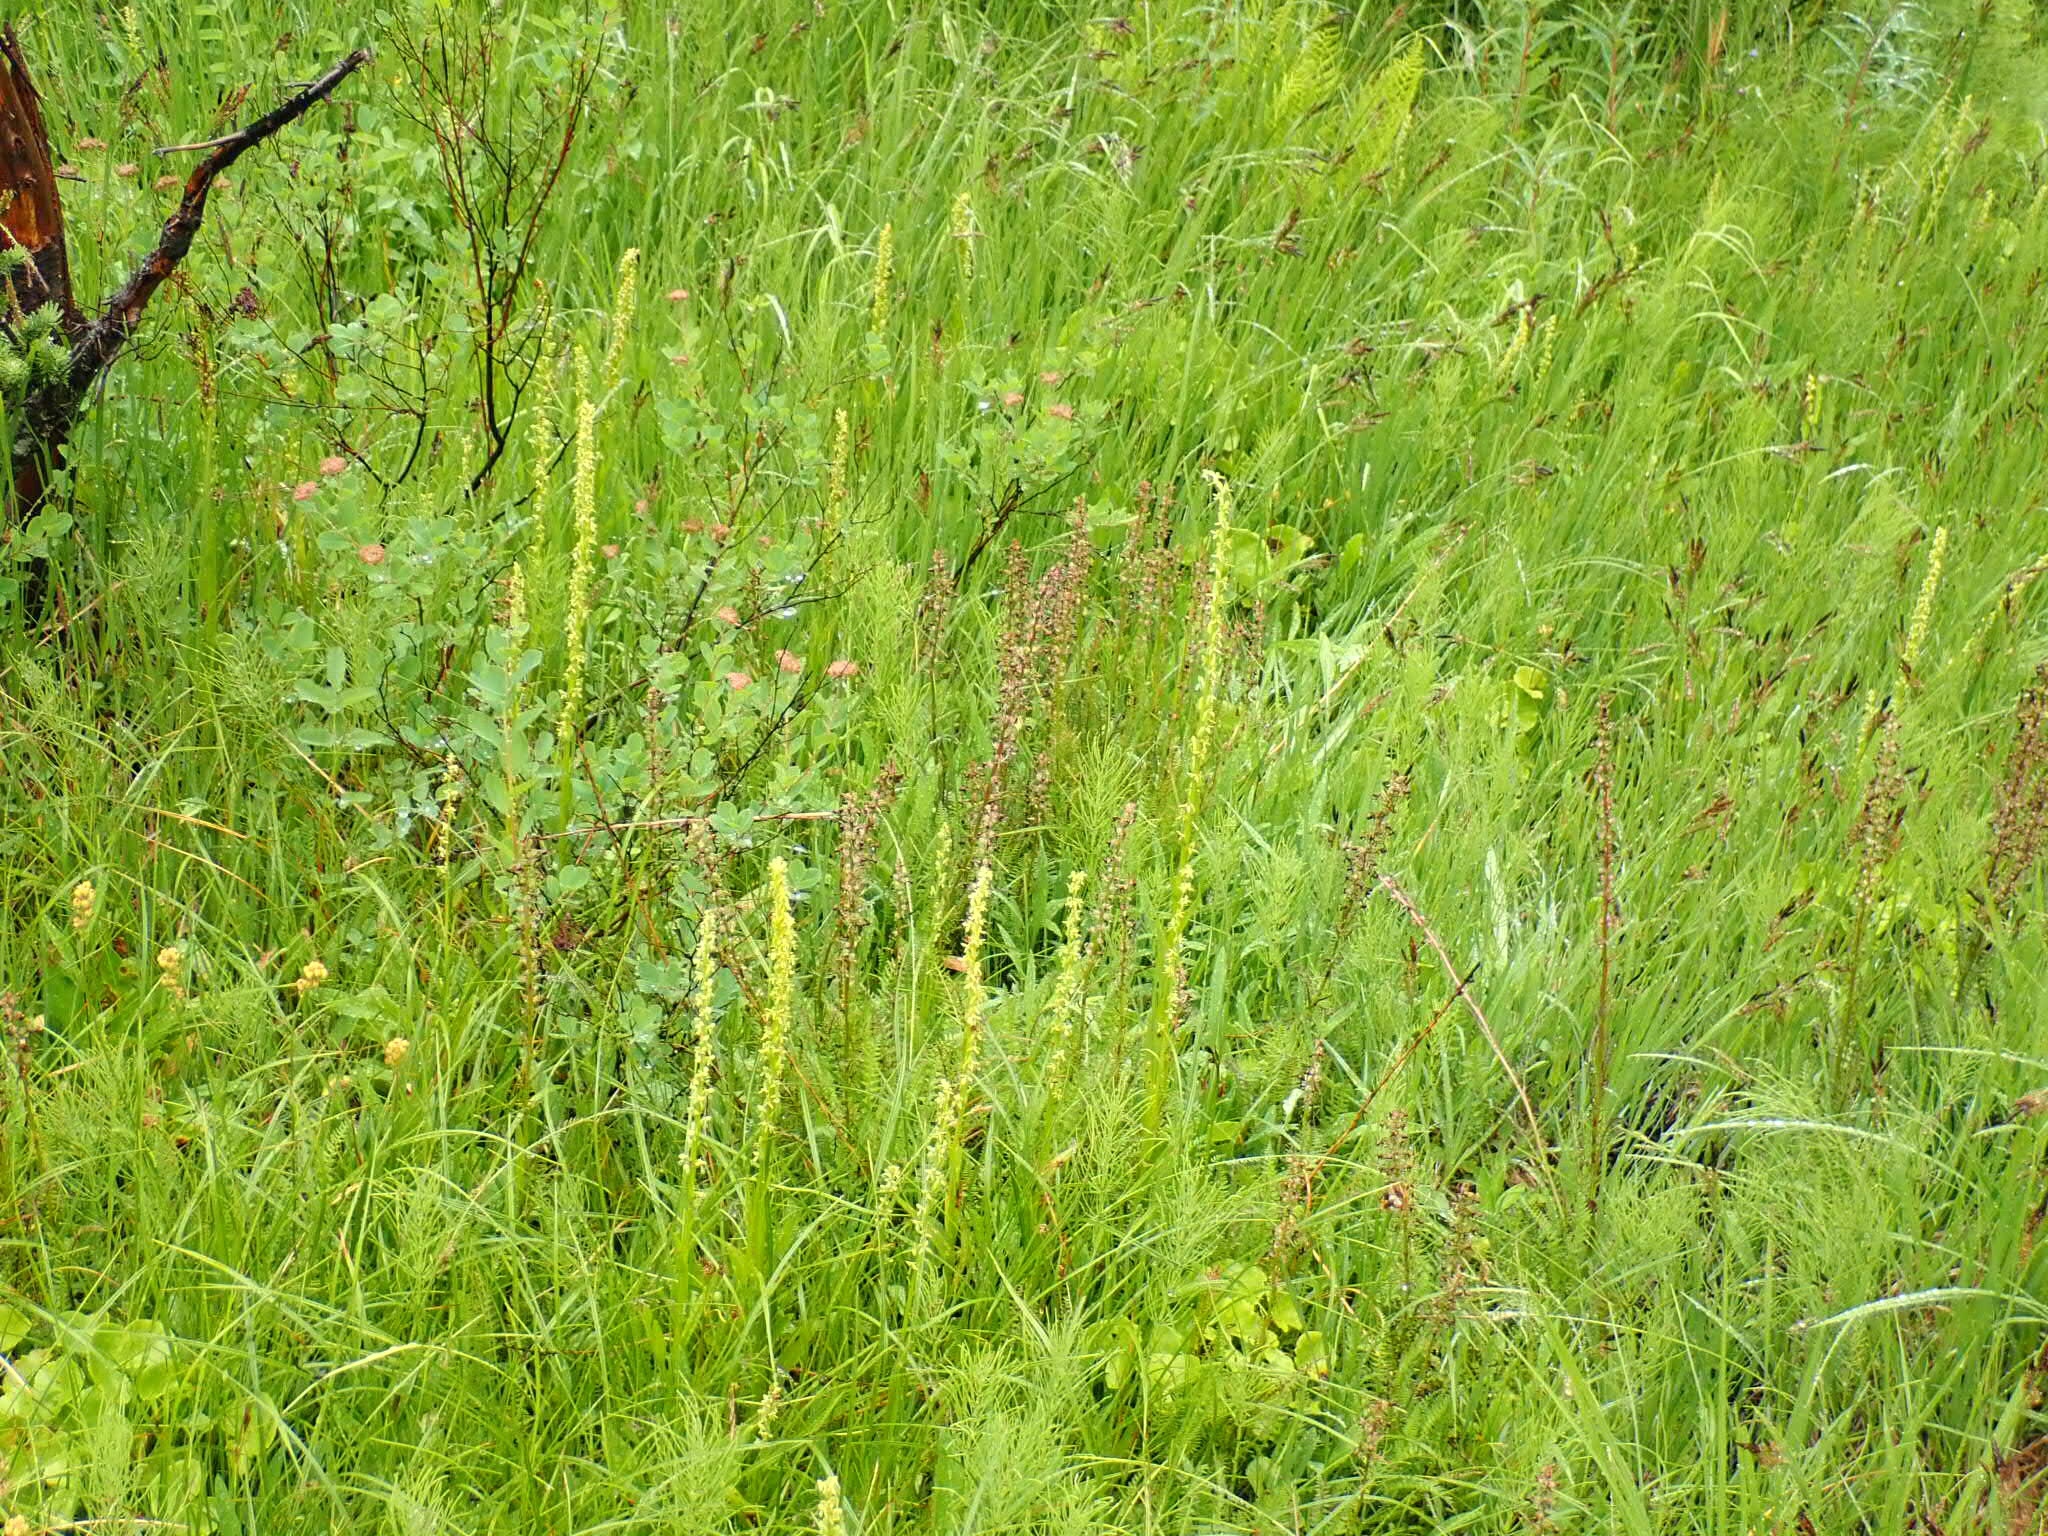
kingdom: Plantae
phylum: Tracheophyta
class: Magnoliopsida
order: Lamiales
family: Orobanchaceae
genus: Pedicularis
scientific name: Pedicularis groenlandica
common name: Elephant's-head
